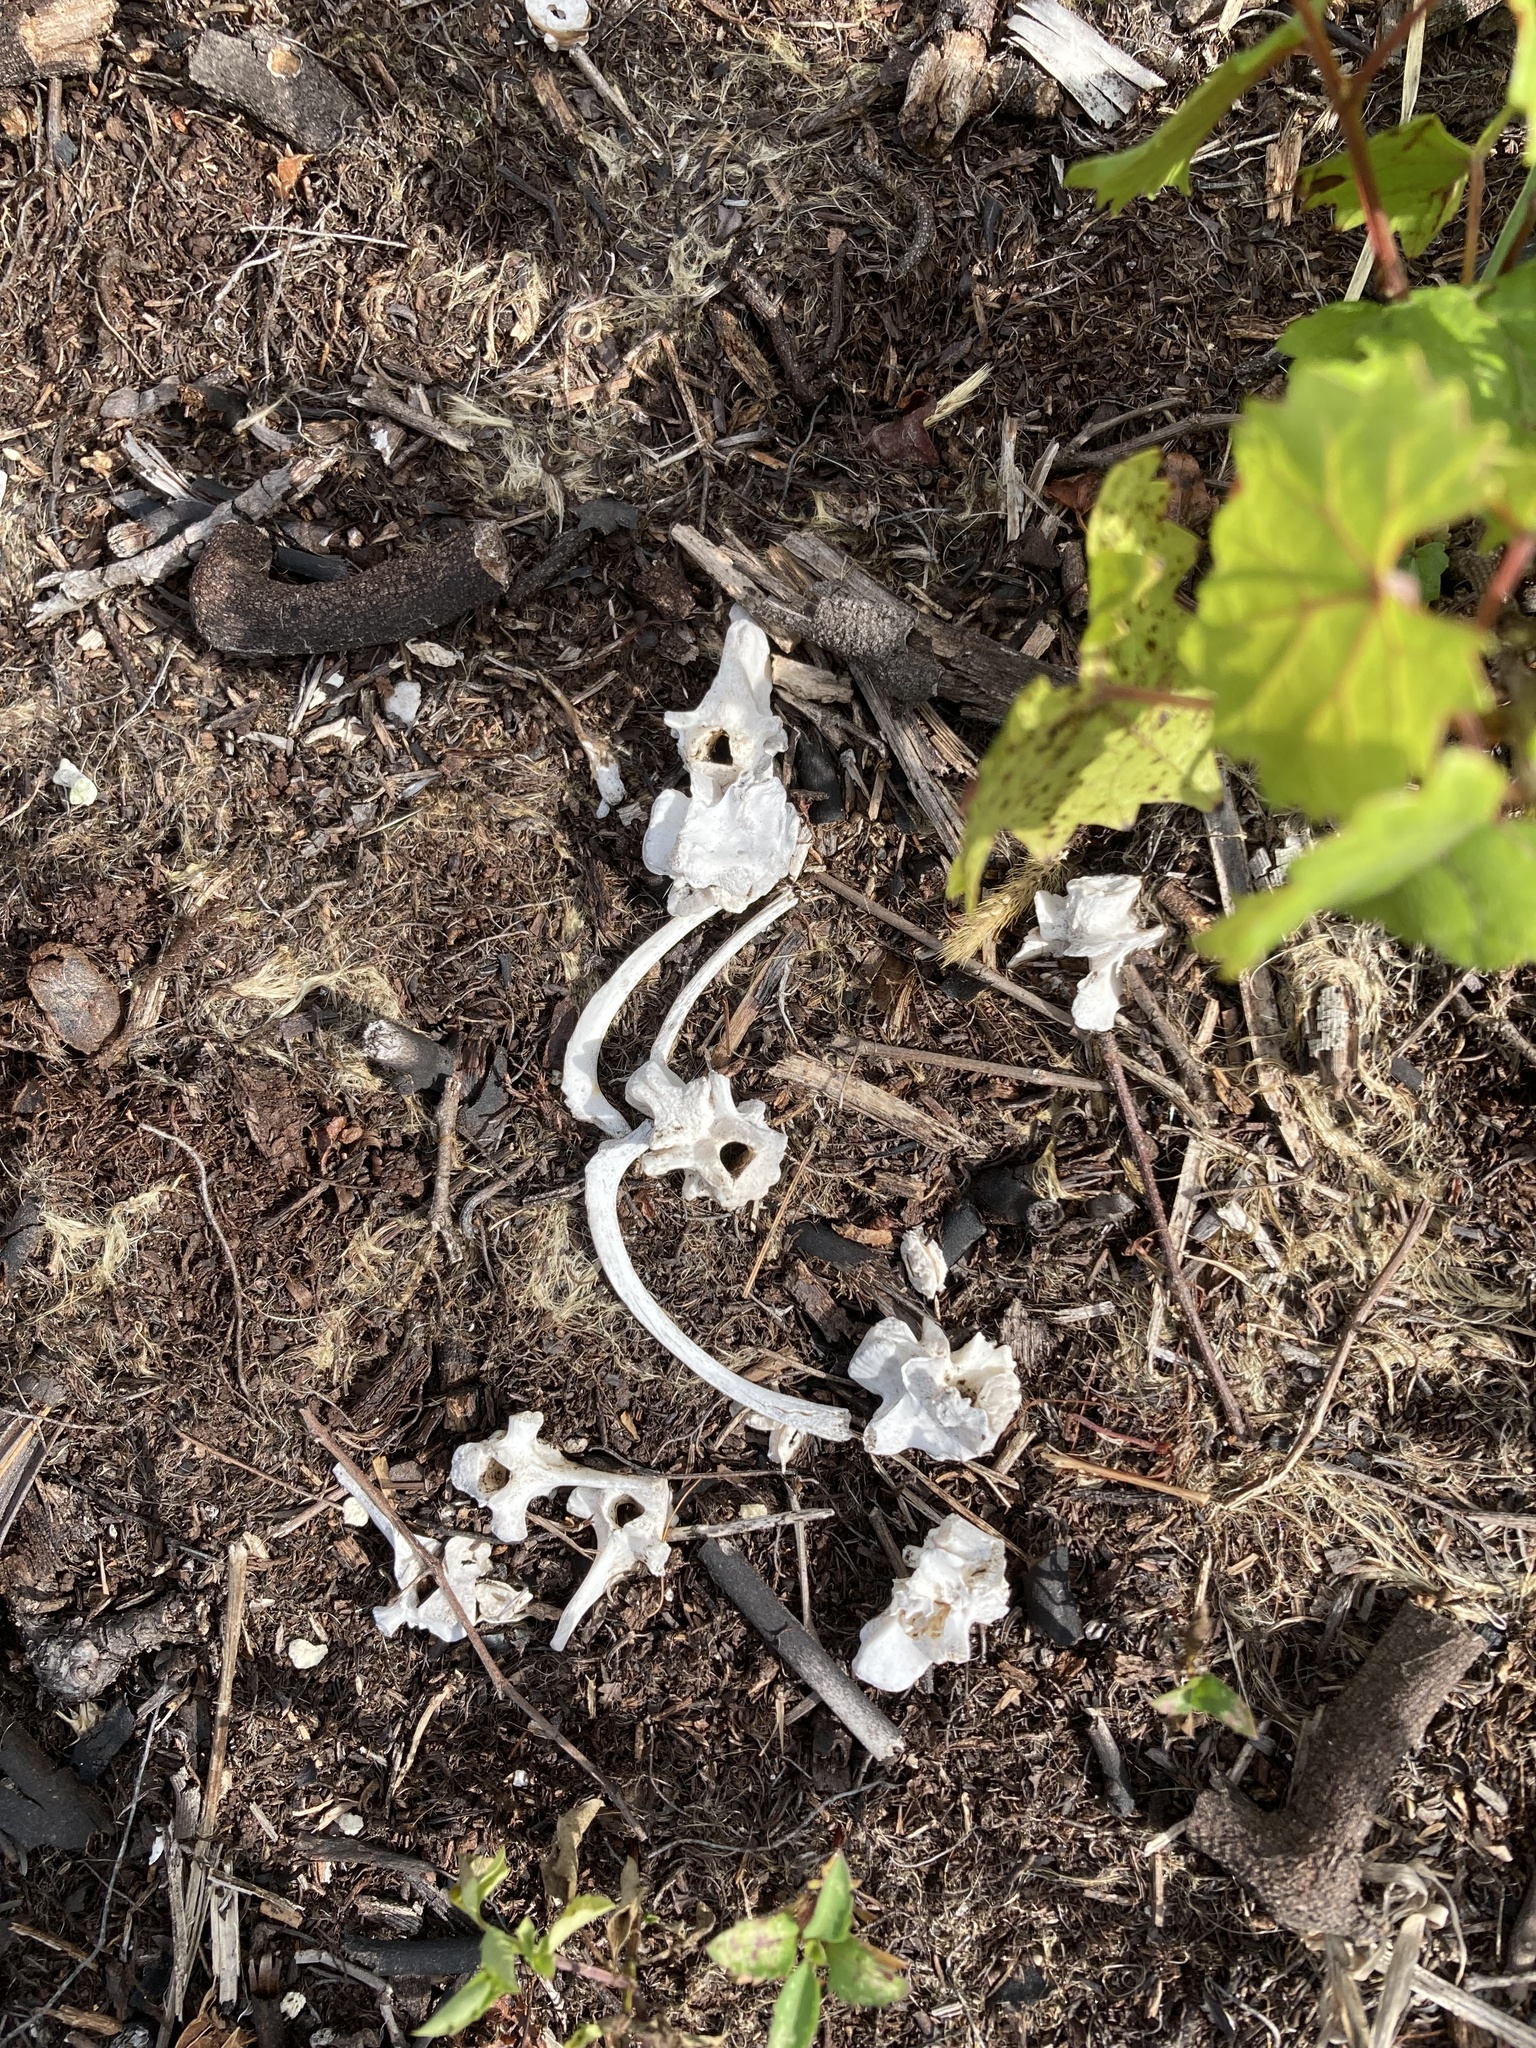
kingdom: Animalia
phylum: Chordata
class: Mammalia
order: Didelphimorphia
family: Didelphidae
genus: Didelphis
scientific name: Didelphis virginiana
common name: Virginia opossum
